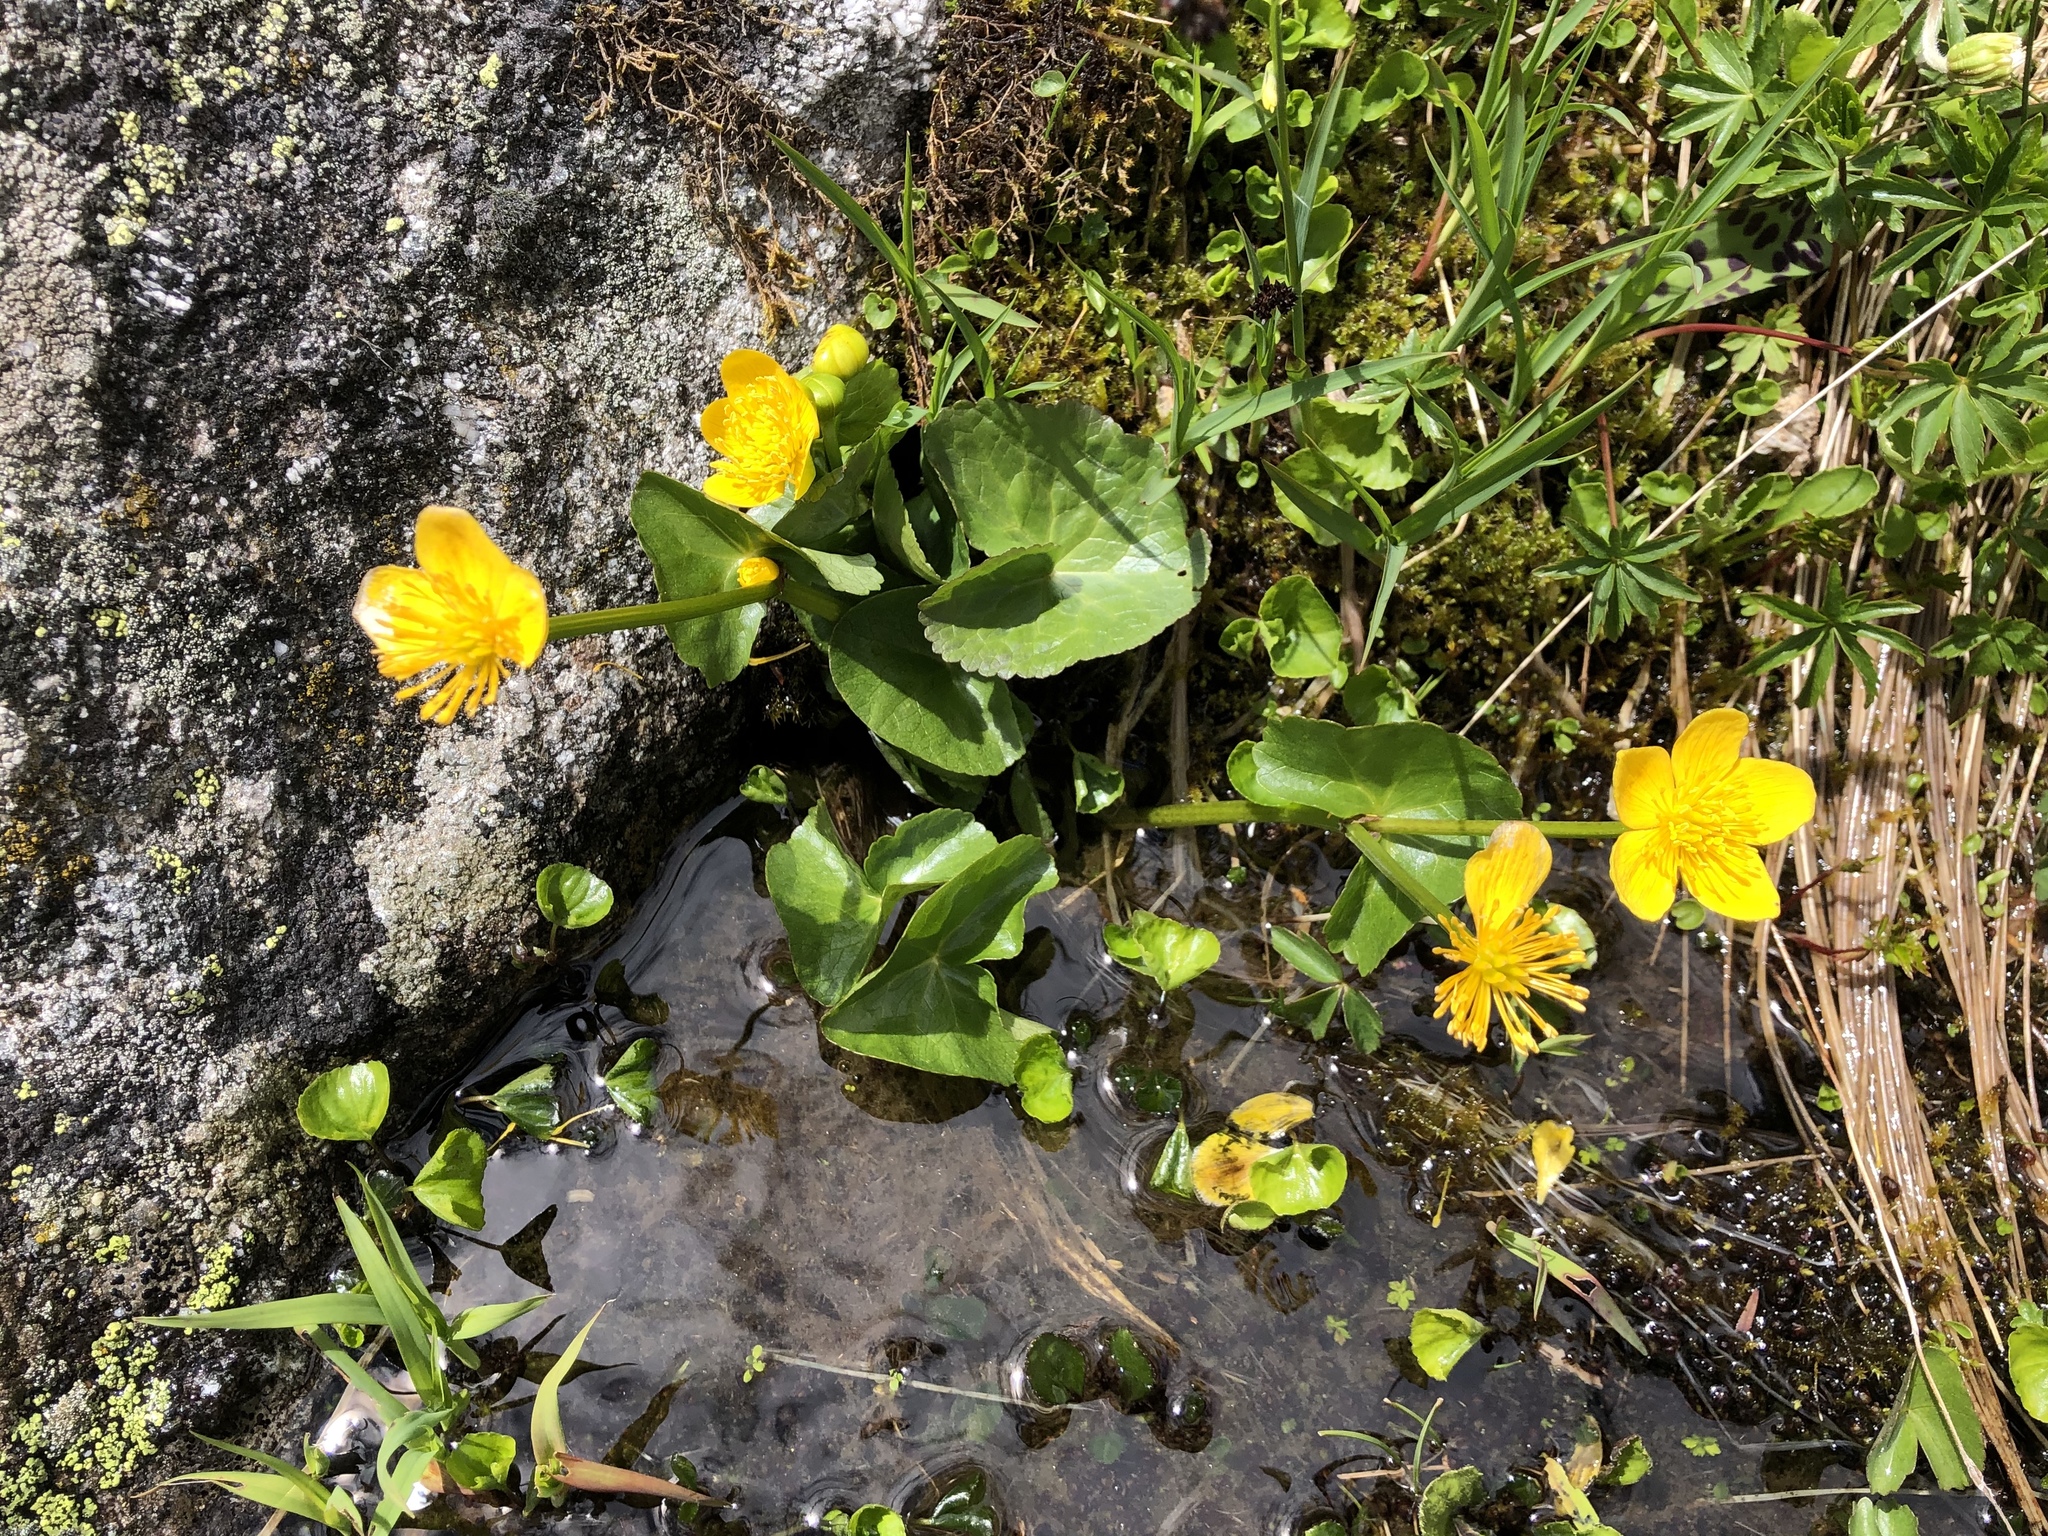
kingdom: Plantae
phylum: Tracheophyta
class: Magnoliopsida
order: Ranunculales
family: Ranunculaceae
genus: Caltha
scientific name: Caltha palustris
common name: Marsh marigold
